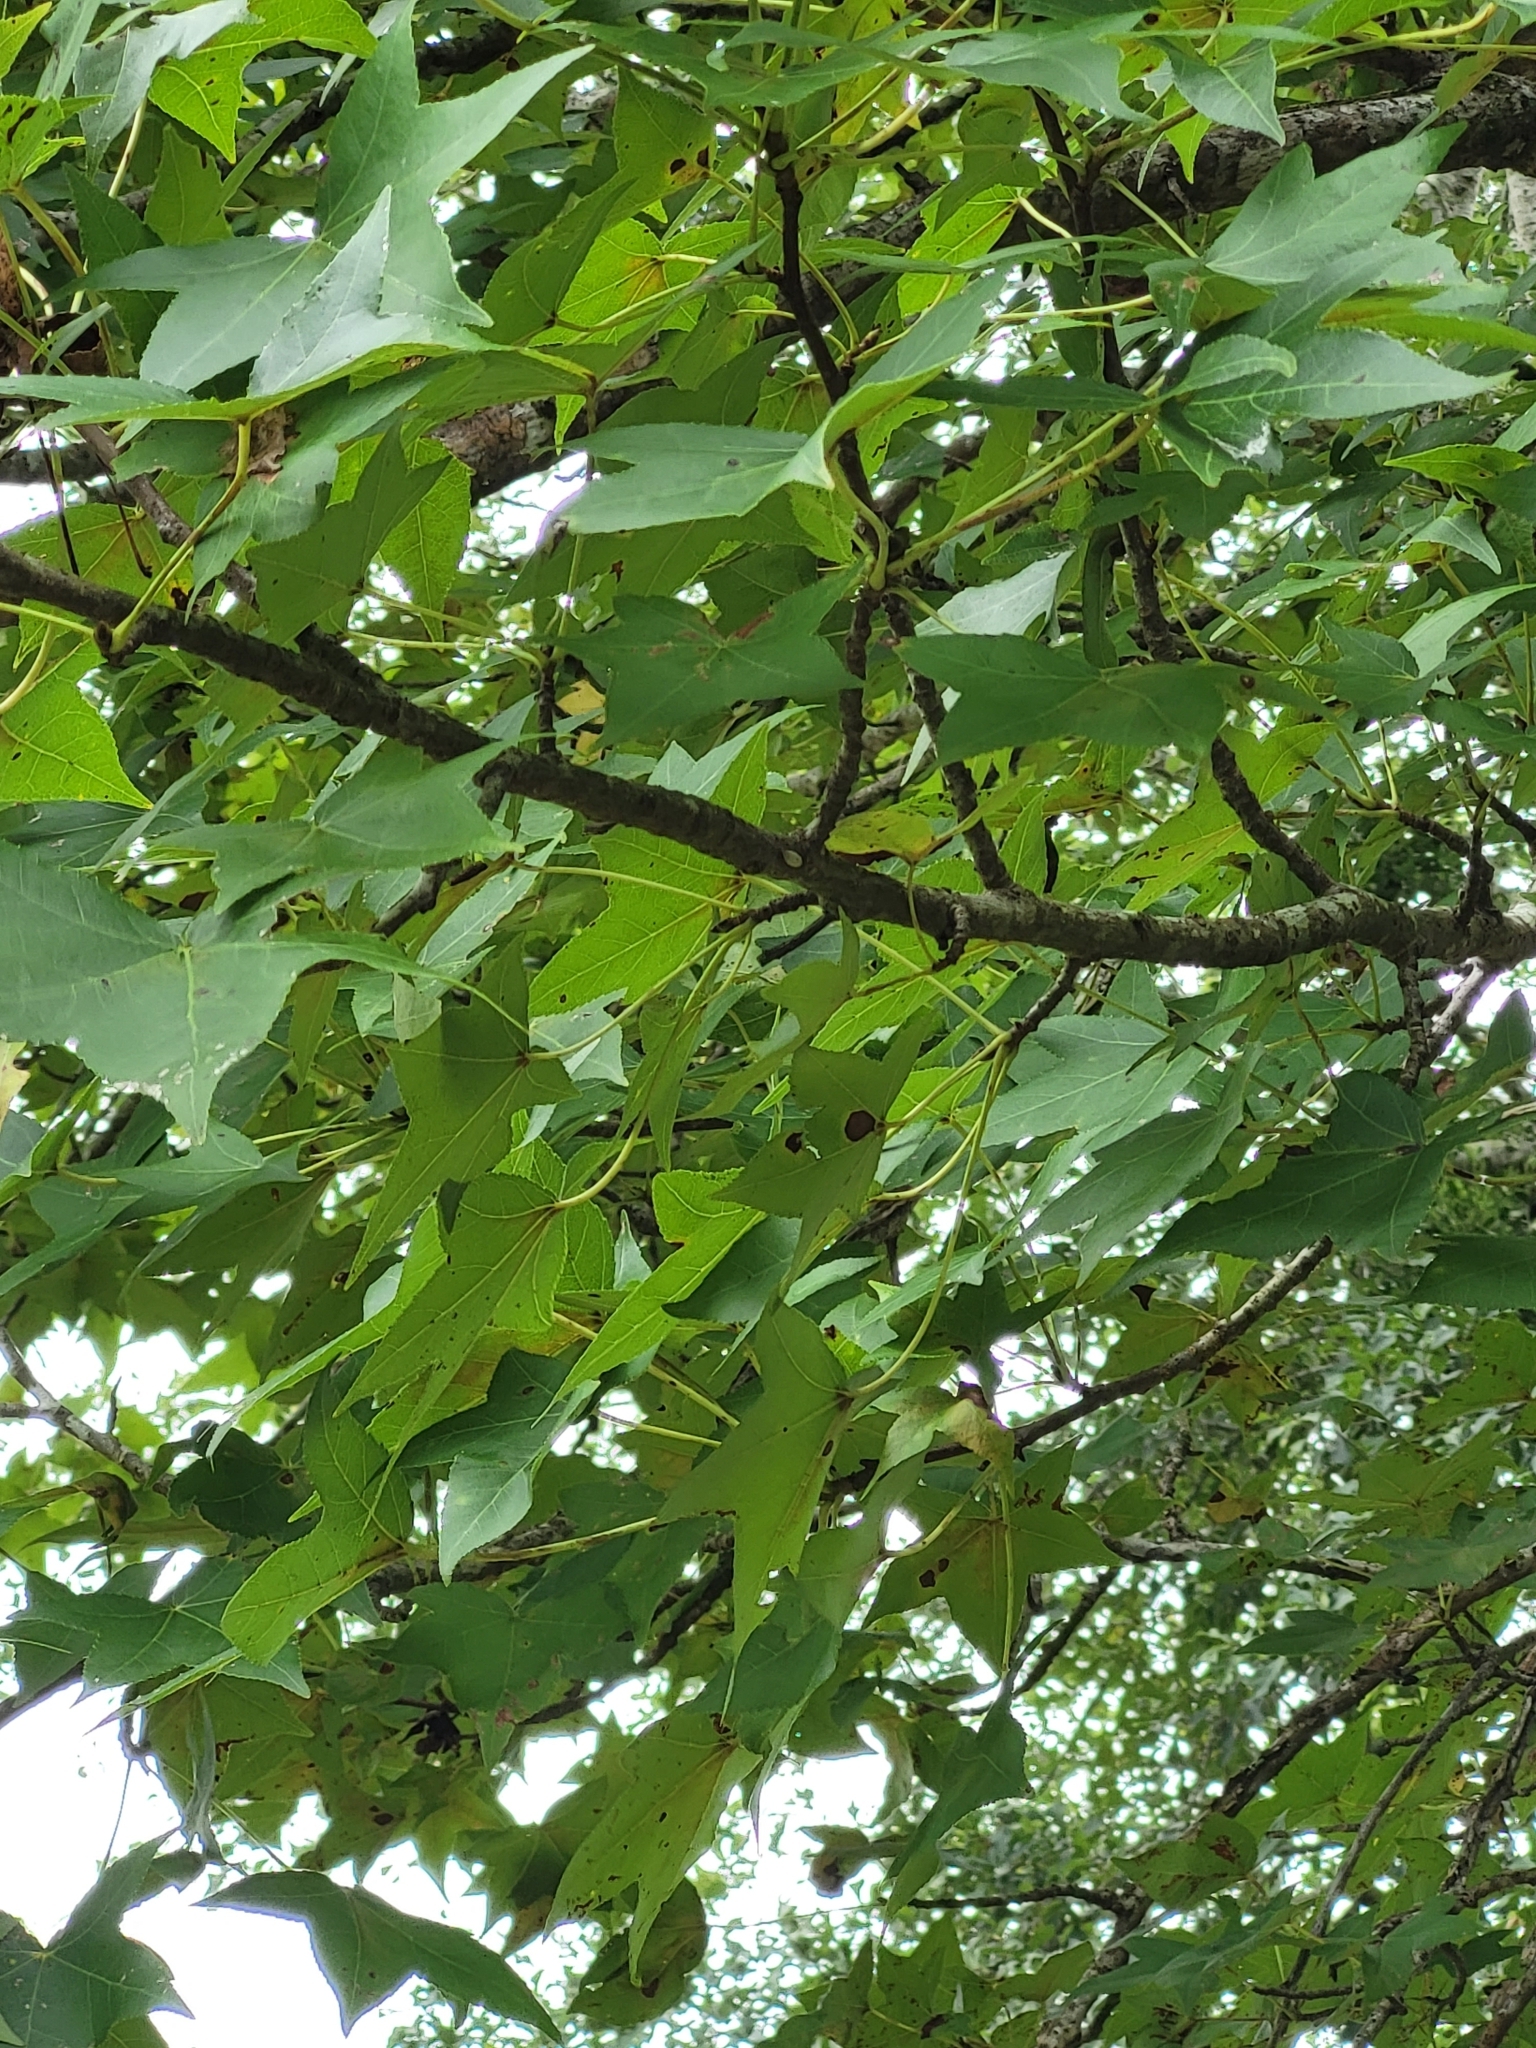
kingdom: Plantae
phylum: Tracheophyta
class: Magnoliopsida
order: Saxifragales
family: Altingiaceae
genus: Liquidambar
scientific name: Liquidambar styraciflua
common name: Sweet gum
